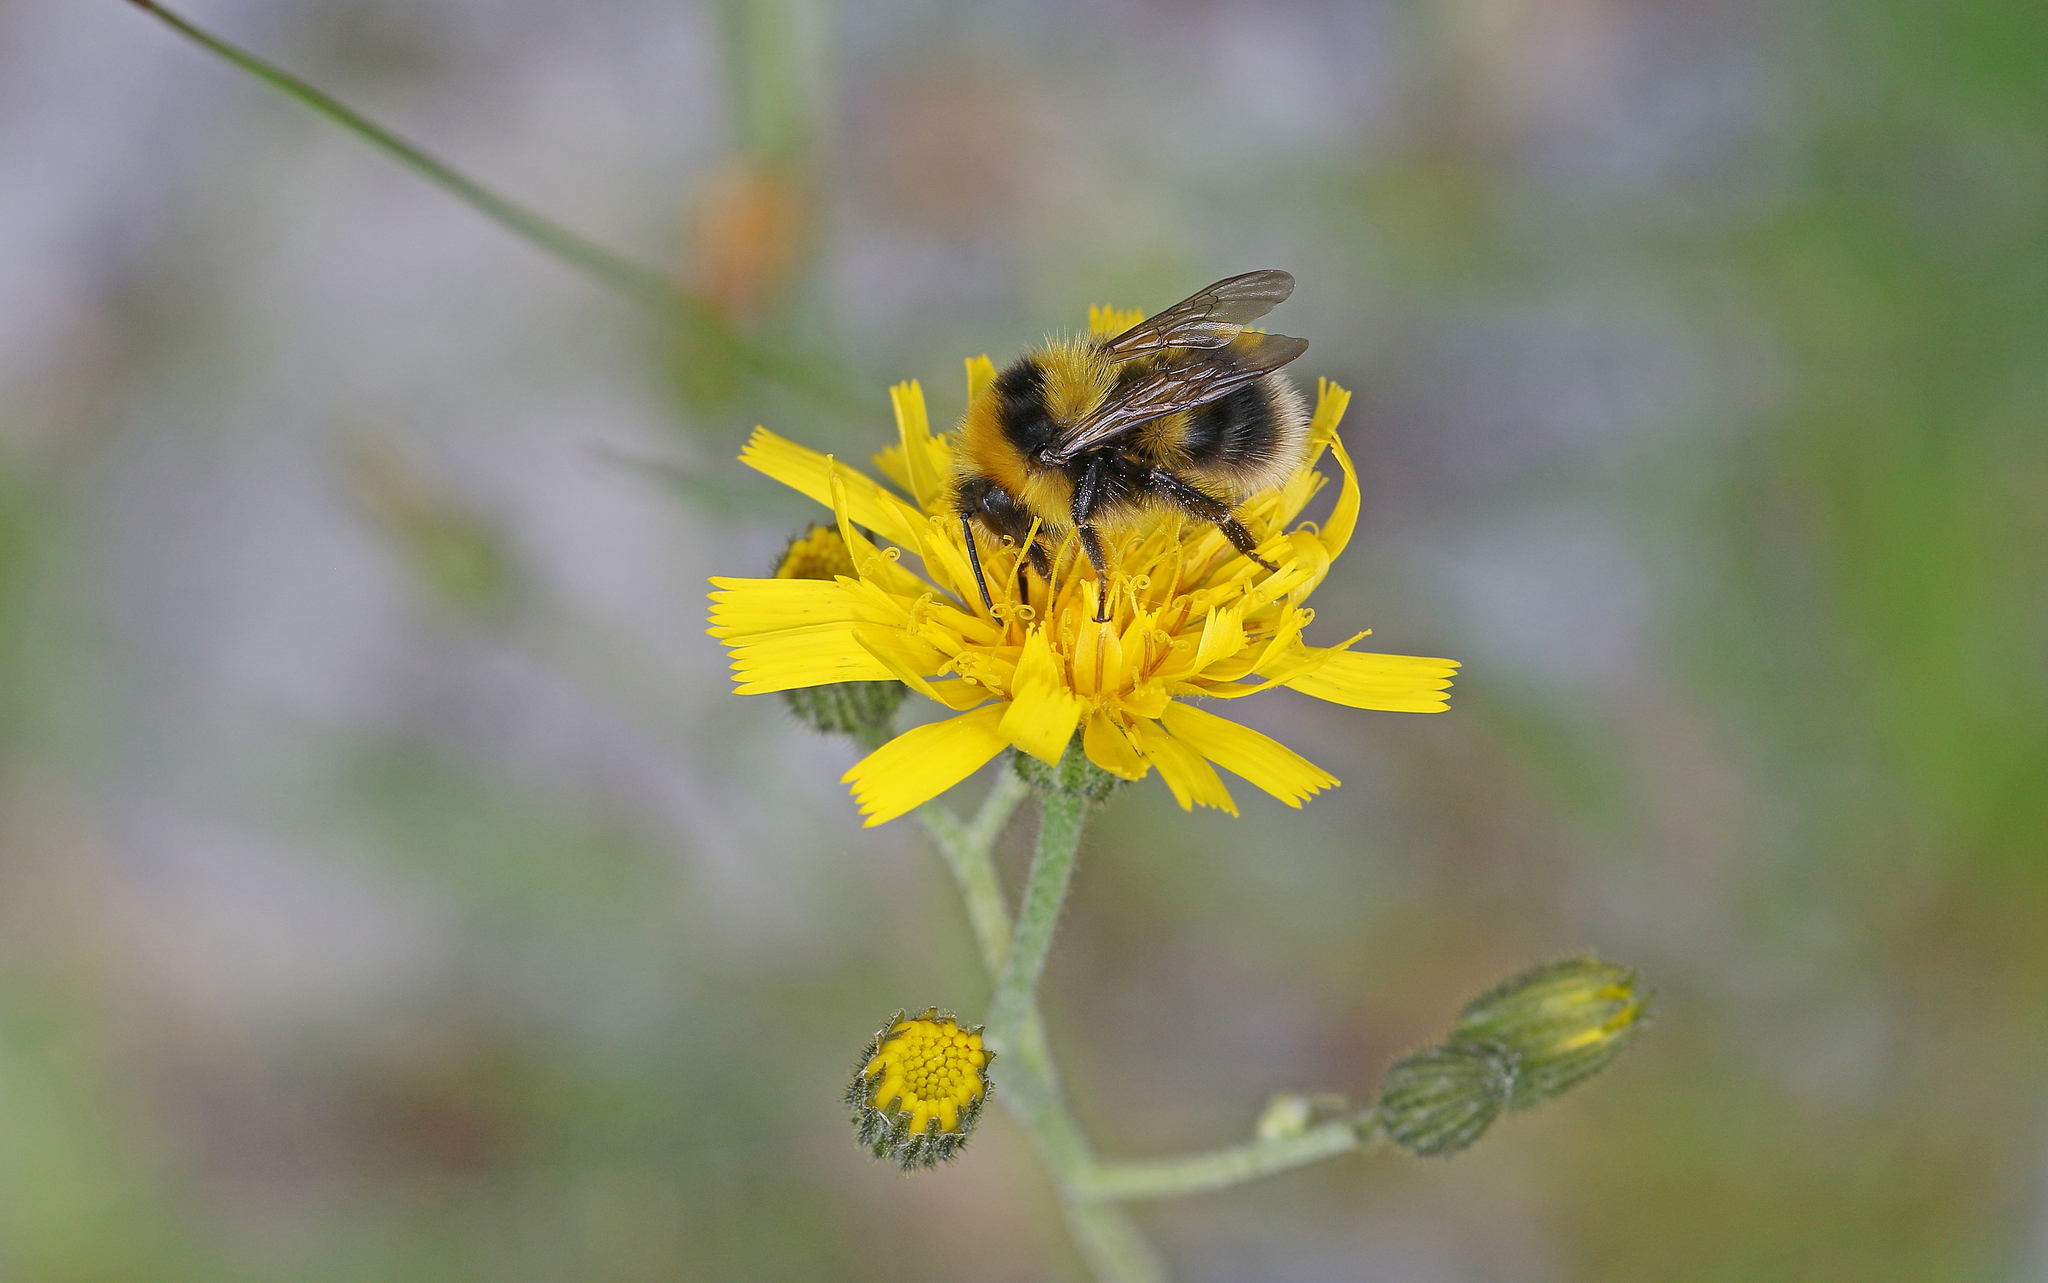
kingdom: Animalia
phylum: Arthropoda
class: Insecta
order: Hymenoptera
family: Apidae
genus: Bombus
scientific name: Bombus jonellus
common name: Heath humble-bee
